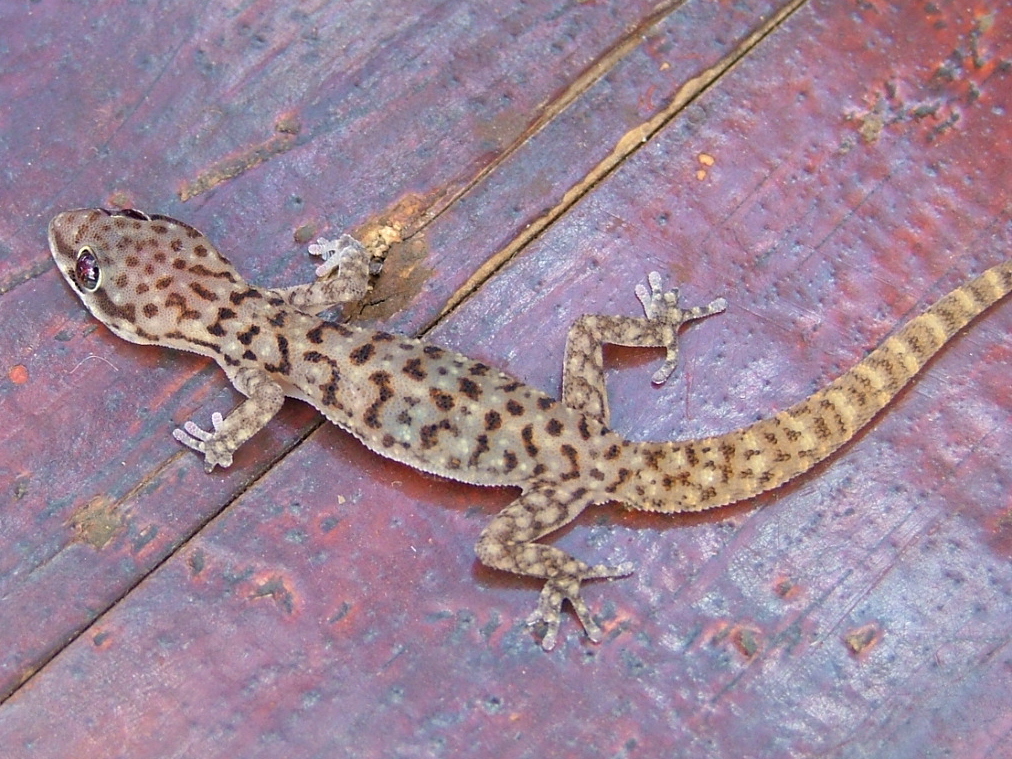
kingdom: Animalia
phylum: Chordata
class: Squamata
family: Gekkonidae
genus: Pachydactylus
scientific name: Pachydactylus affinis
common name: Transvaal gecko
